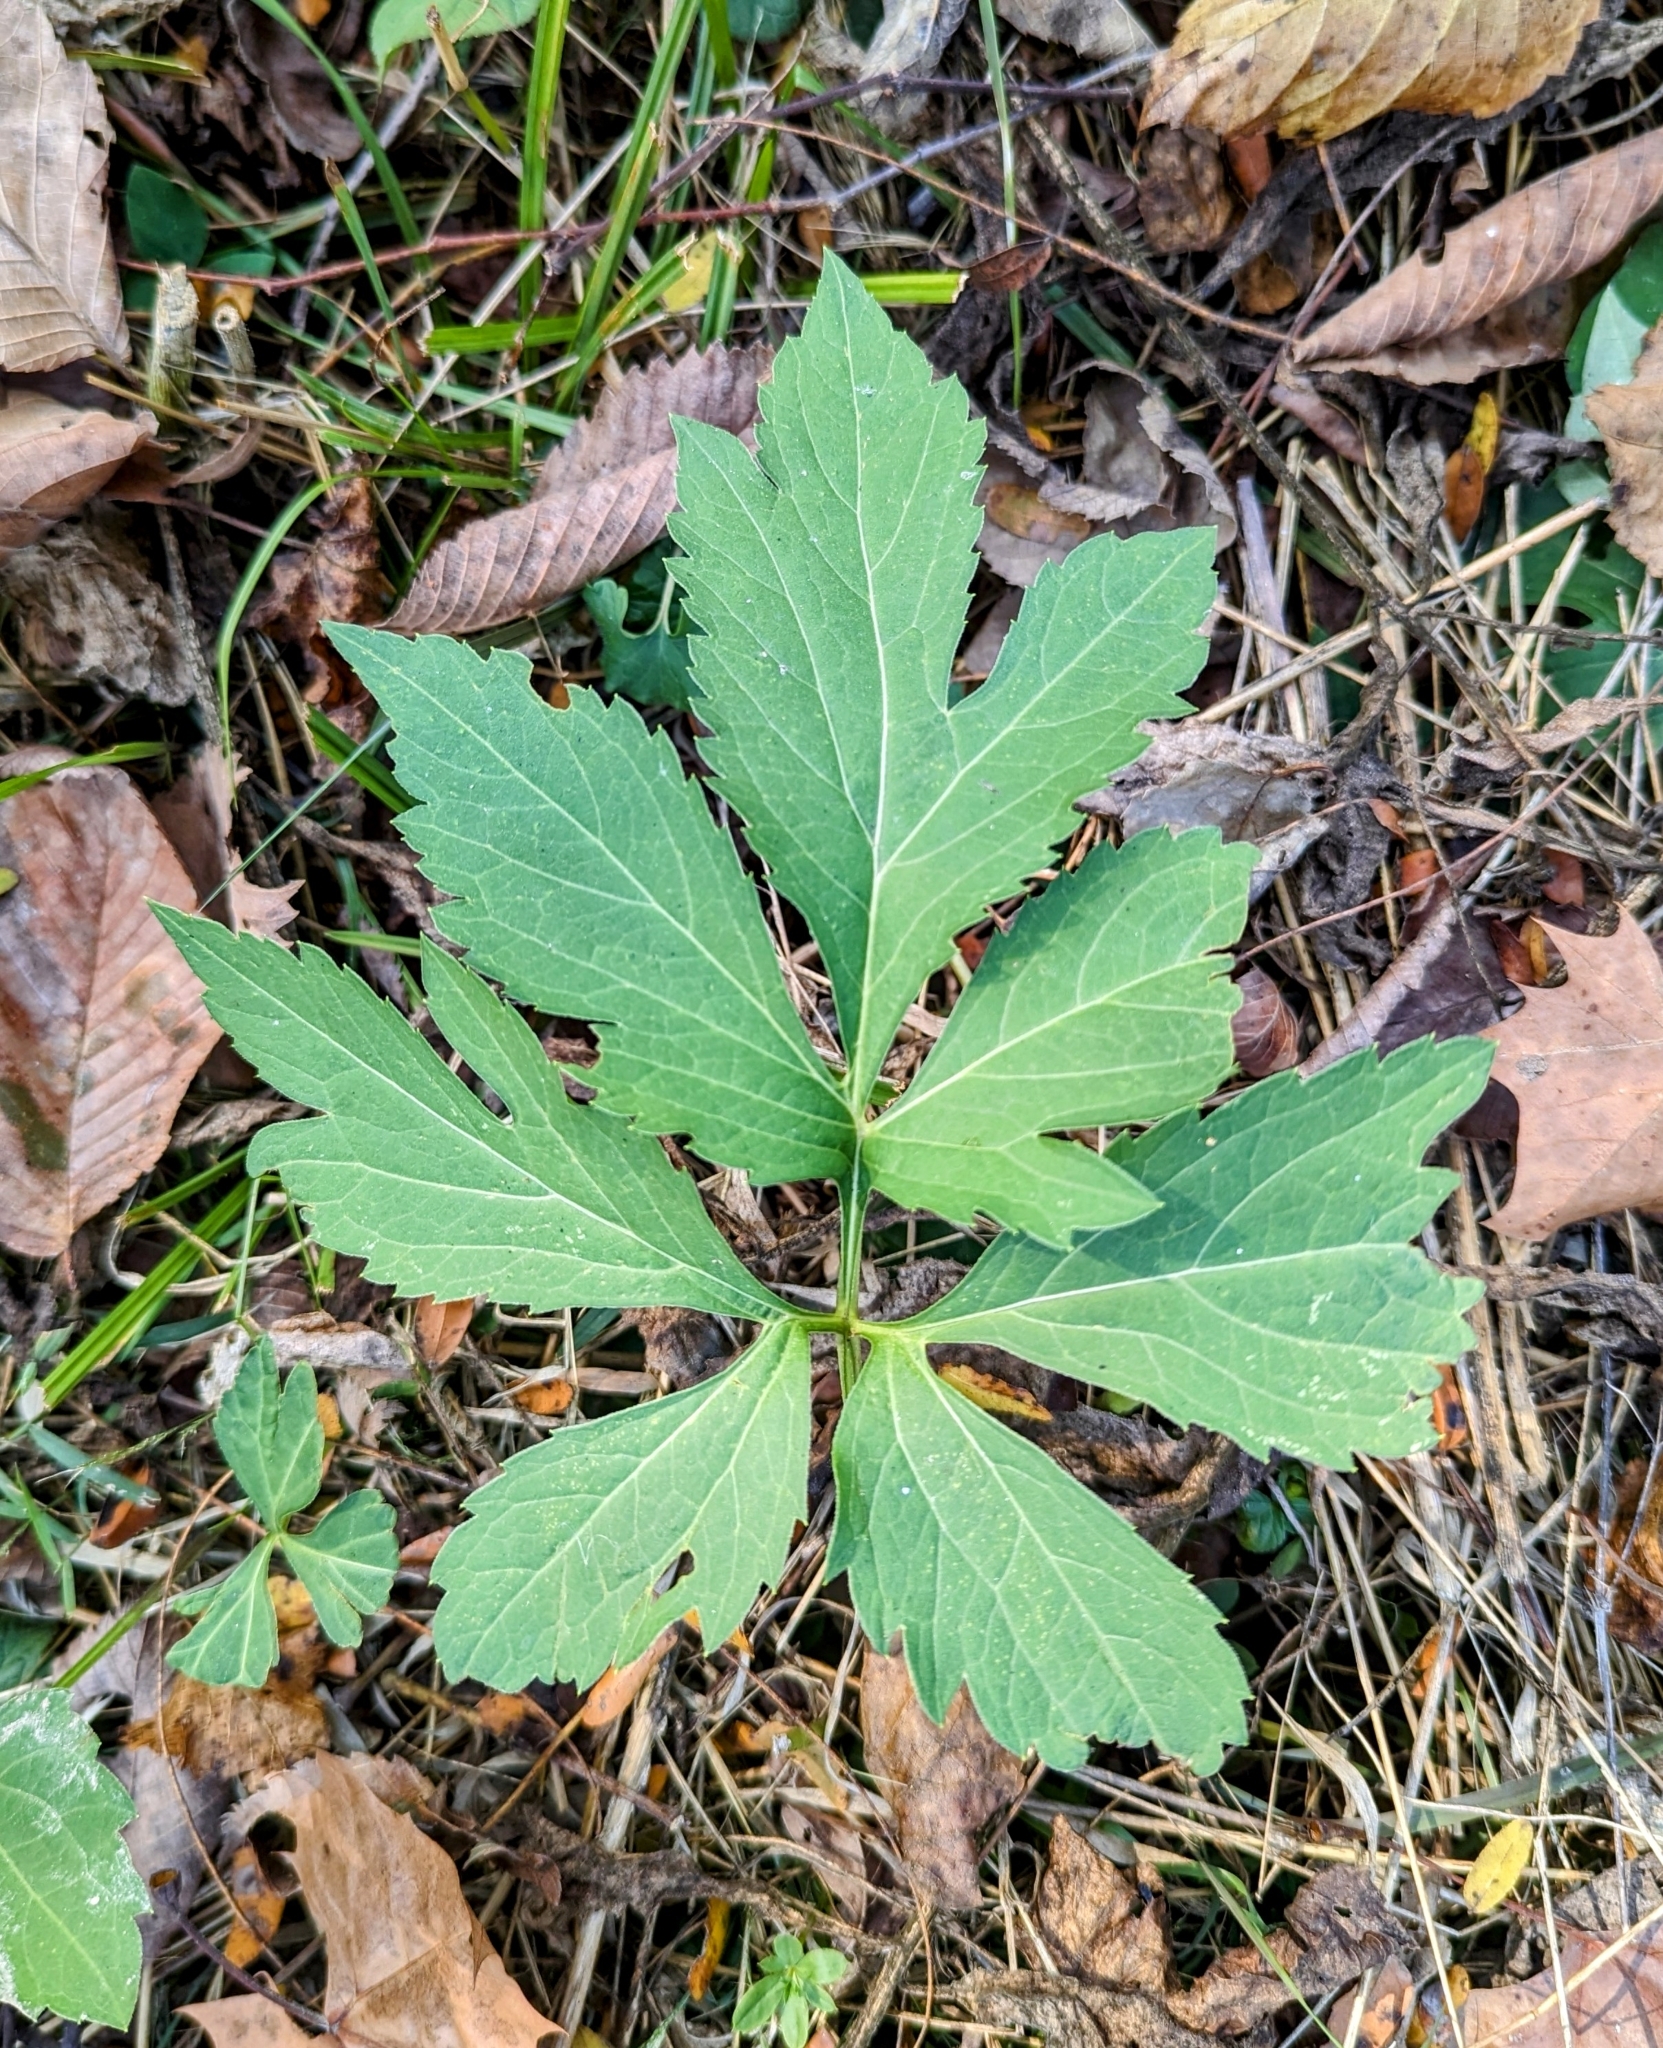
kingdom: Plantae
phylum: Tracheophyta
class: Magnoliopsida
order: Asterales
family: Asteraceae
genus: Rudbeckia
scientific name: Rudbeckia laciniata
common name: Coneflower
